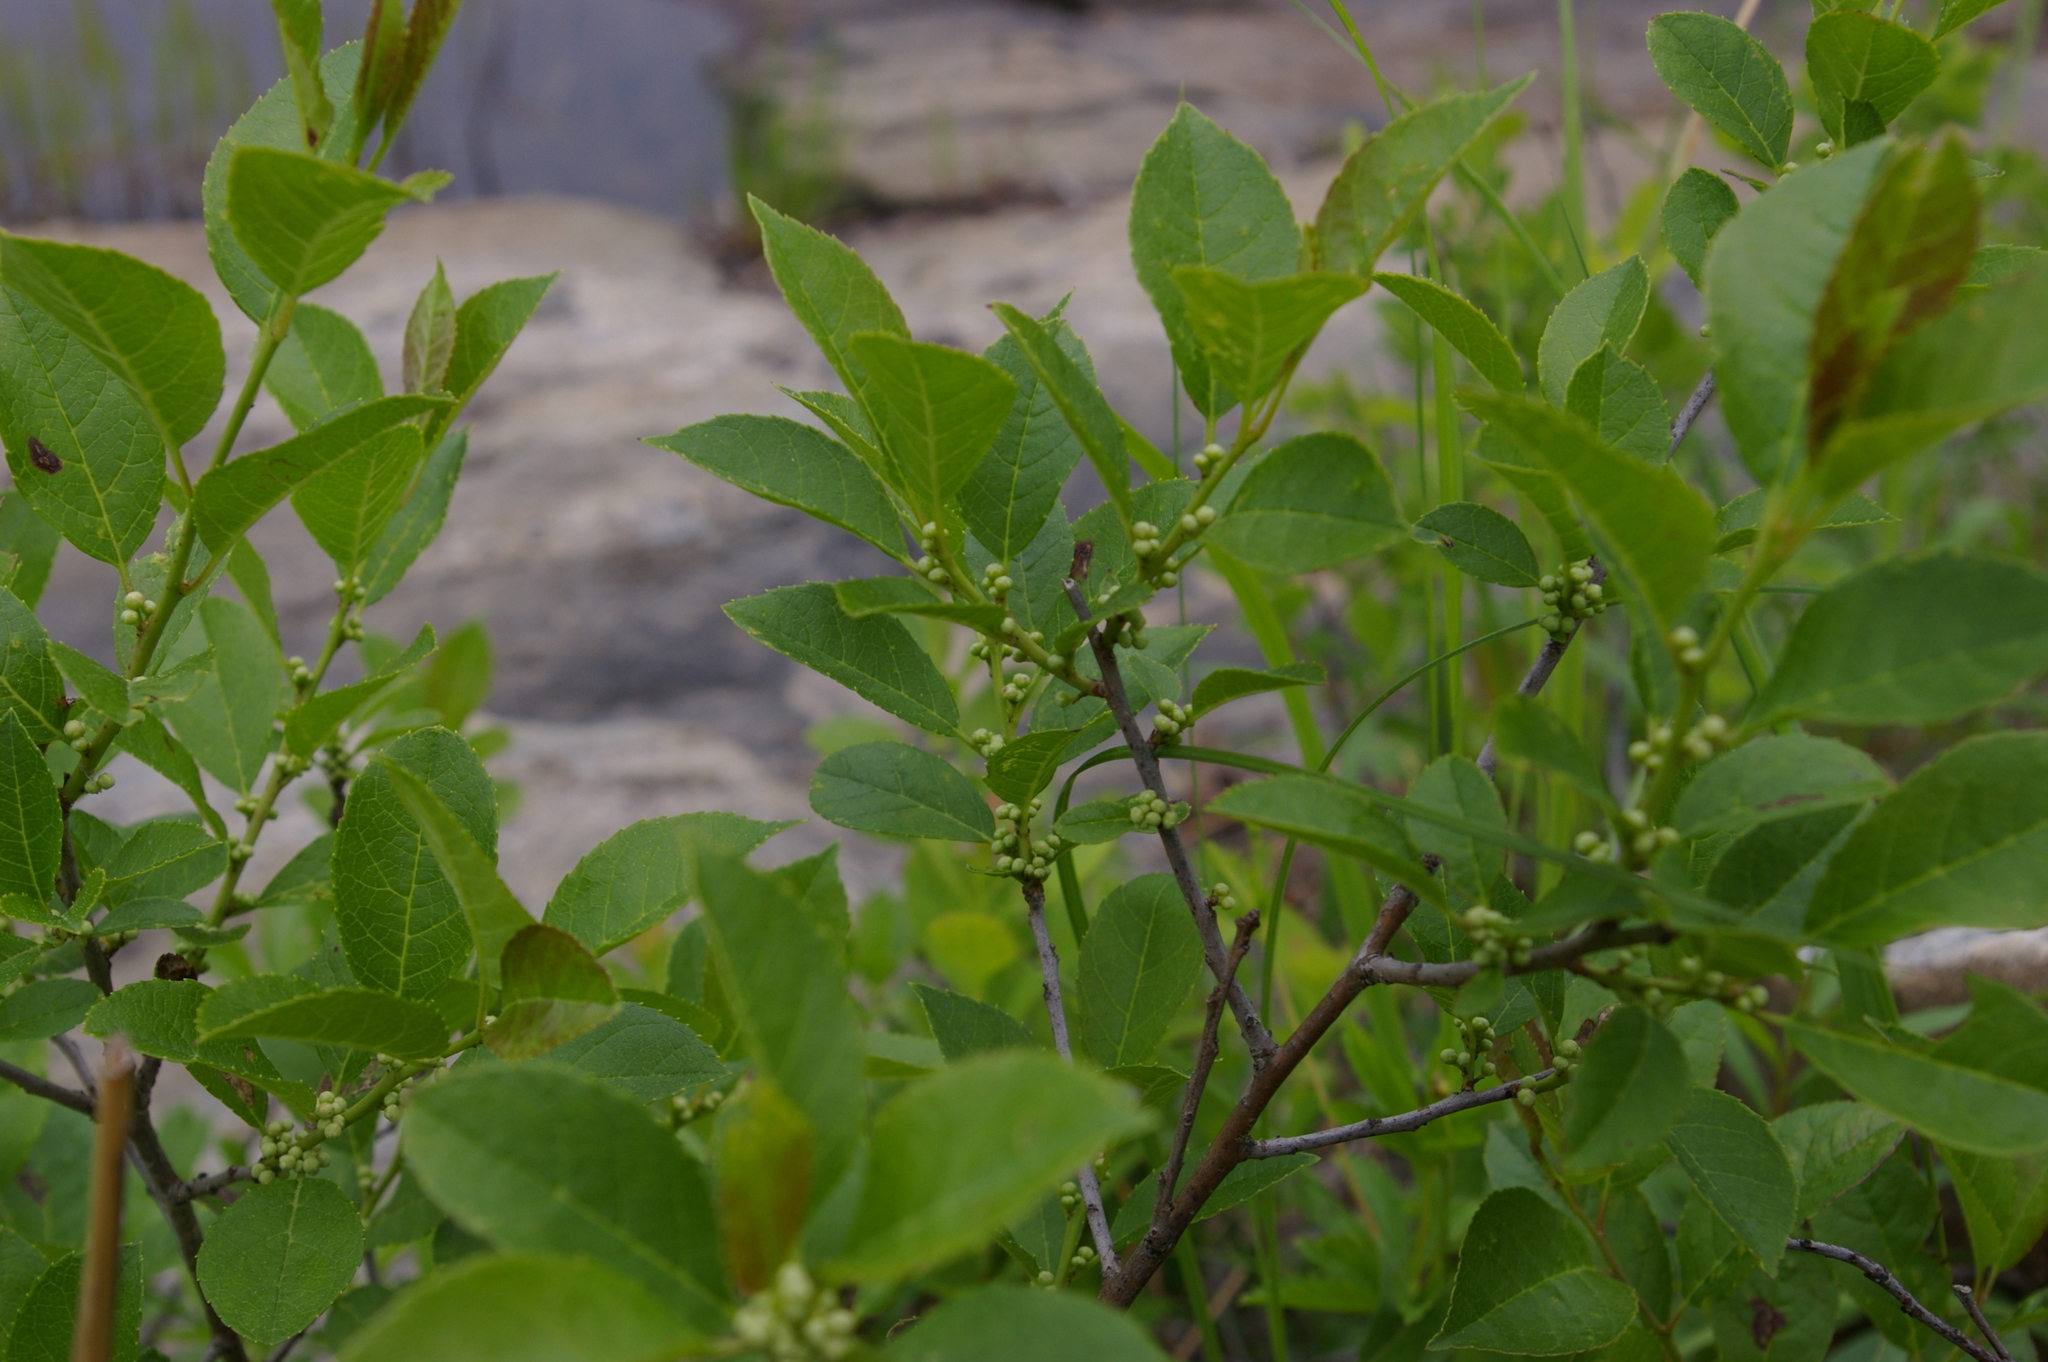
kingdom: Plantae
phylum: Tracheophyta
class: Magnoliopsida
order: Aquifoliales
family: Aquifoliaceae
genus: Ilex
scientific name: Ilex verticillata
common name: Virginia winterberry
